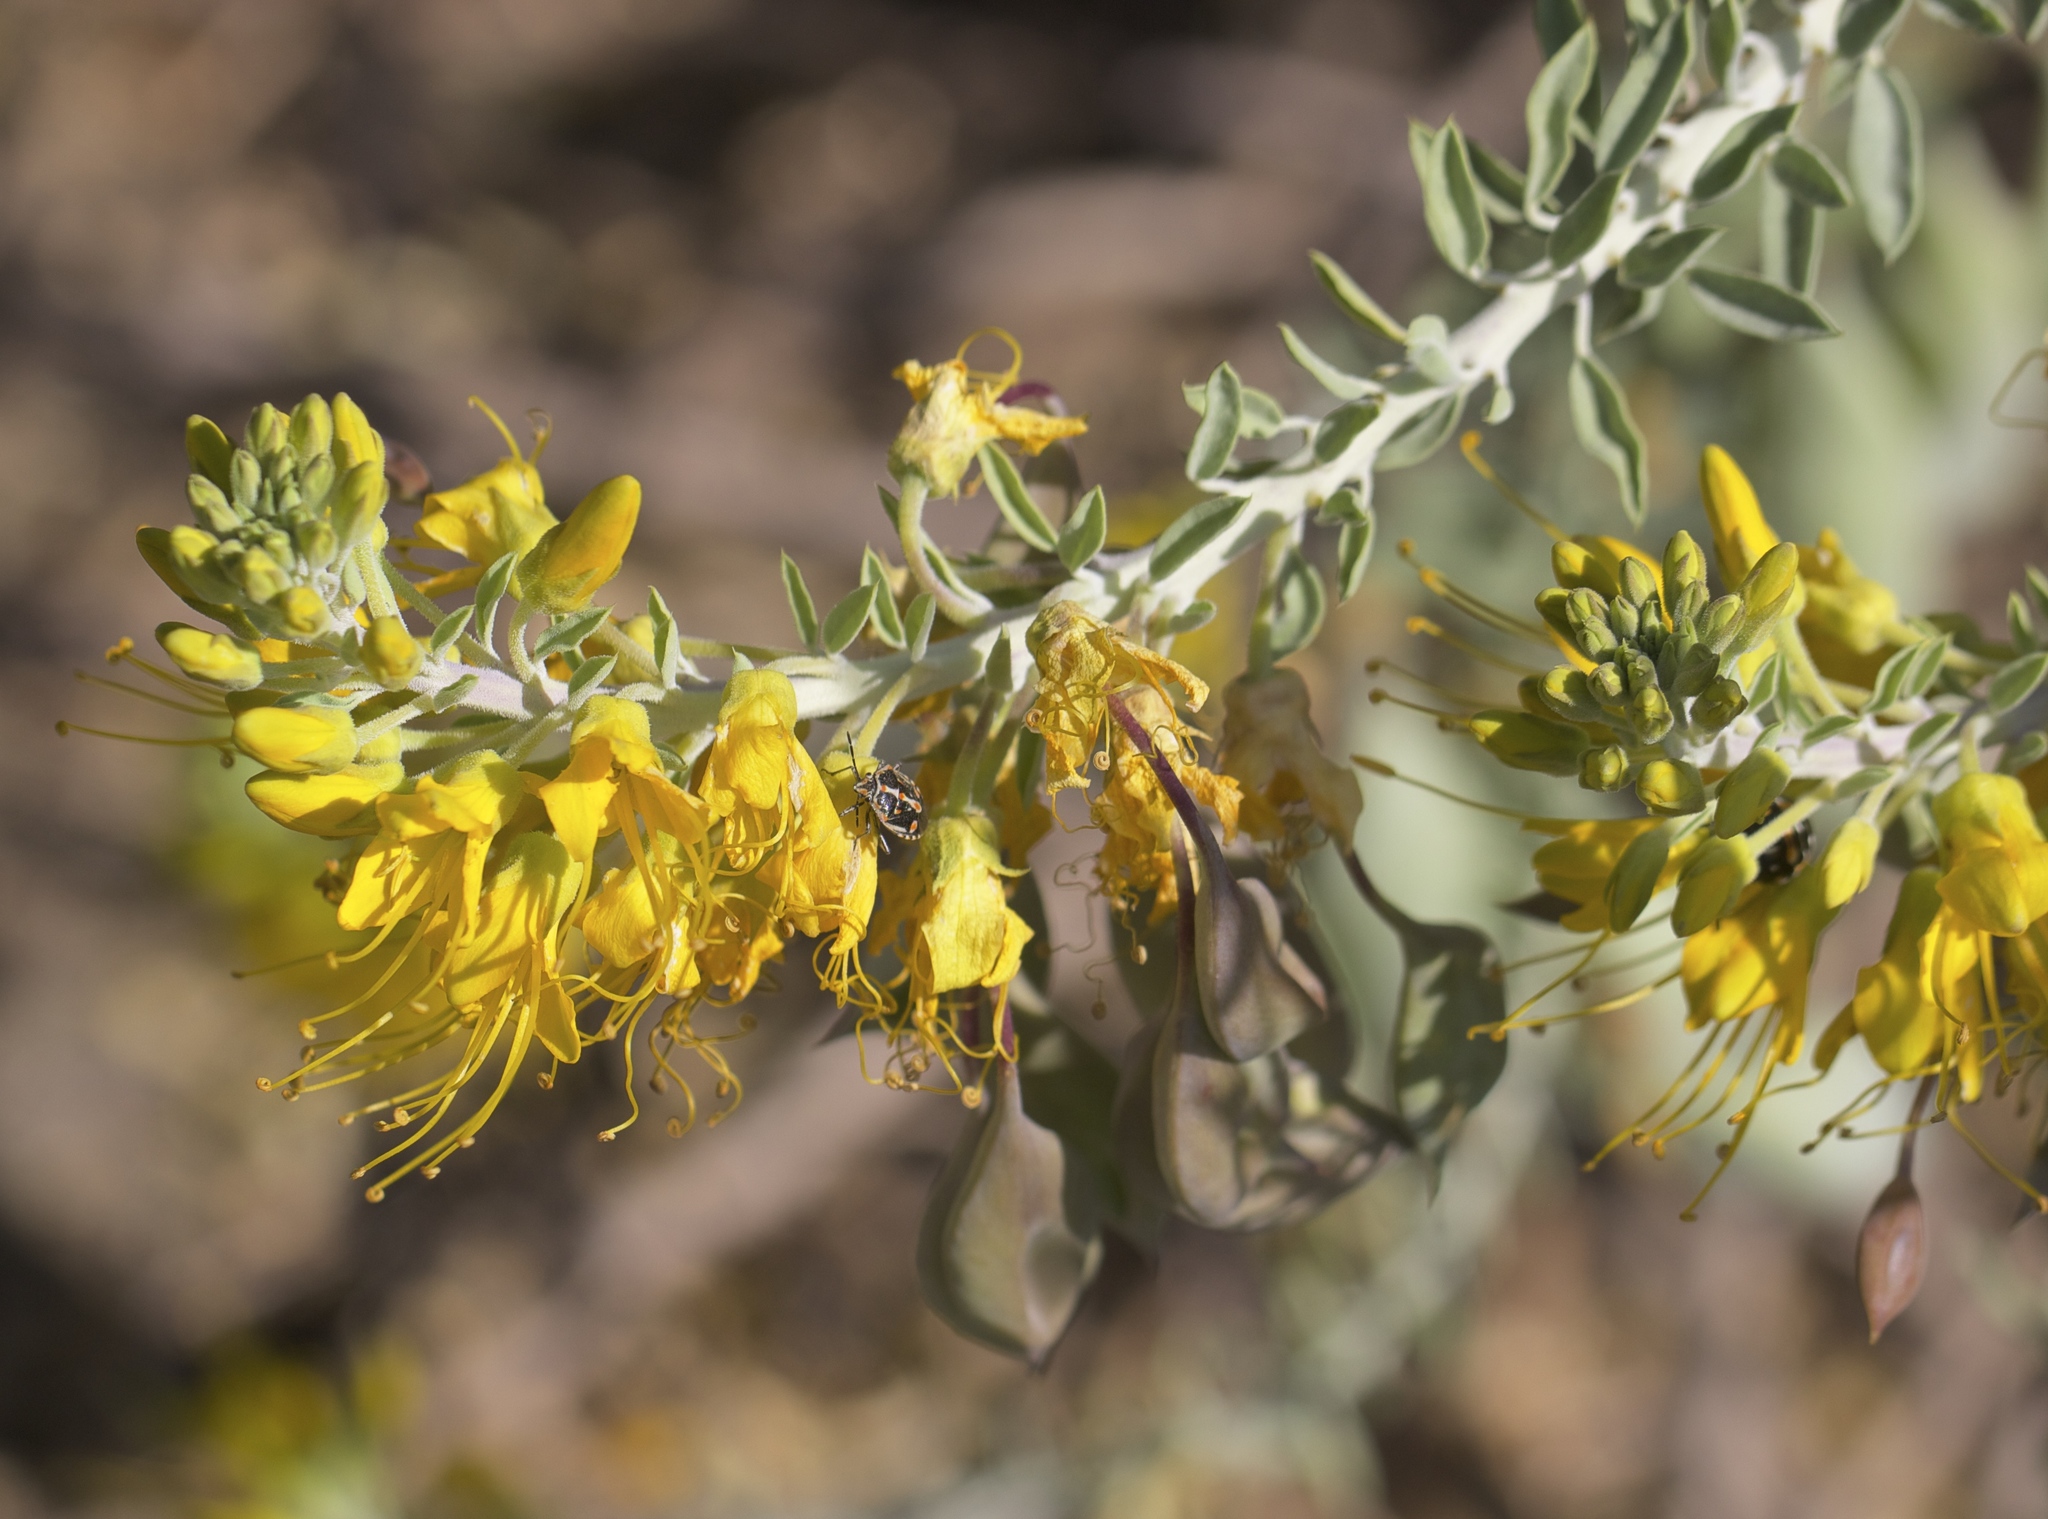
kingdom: Plantae
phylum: Tracheophyta
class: Magnoliopsida
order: Brassicales
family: Cleomaceae
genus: Cleomella
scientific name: Cleomella arborea
